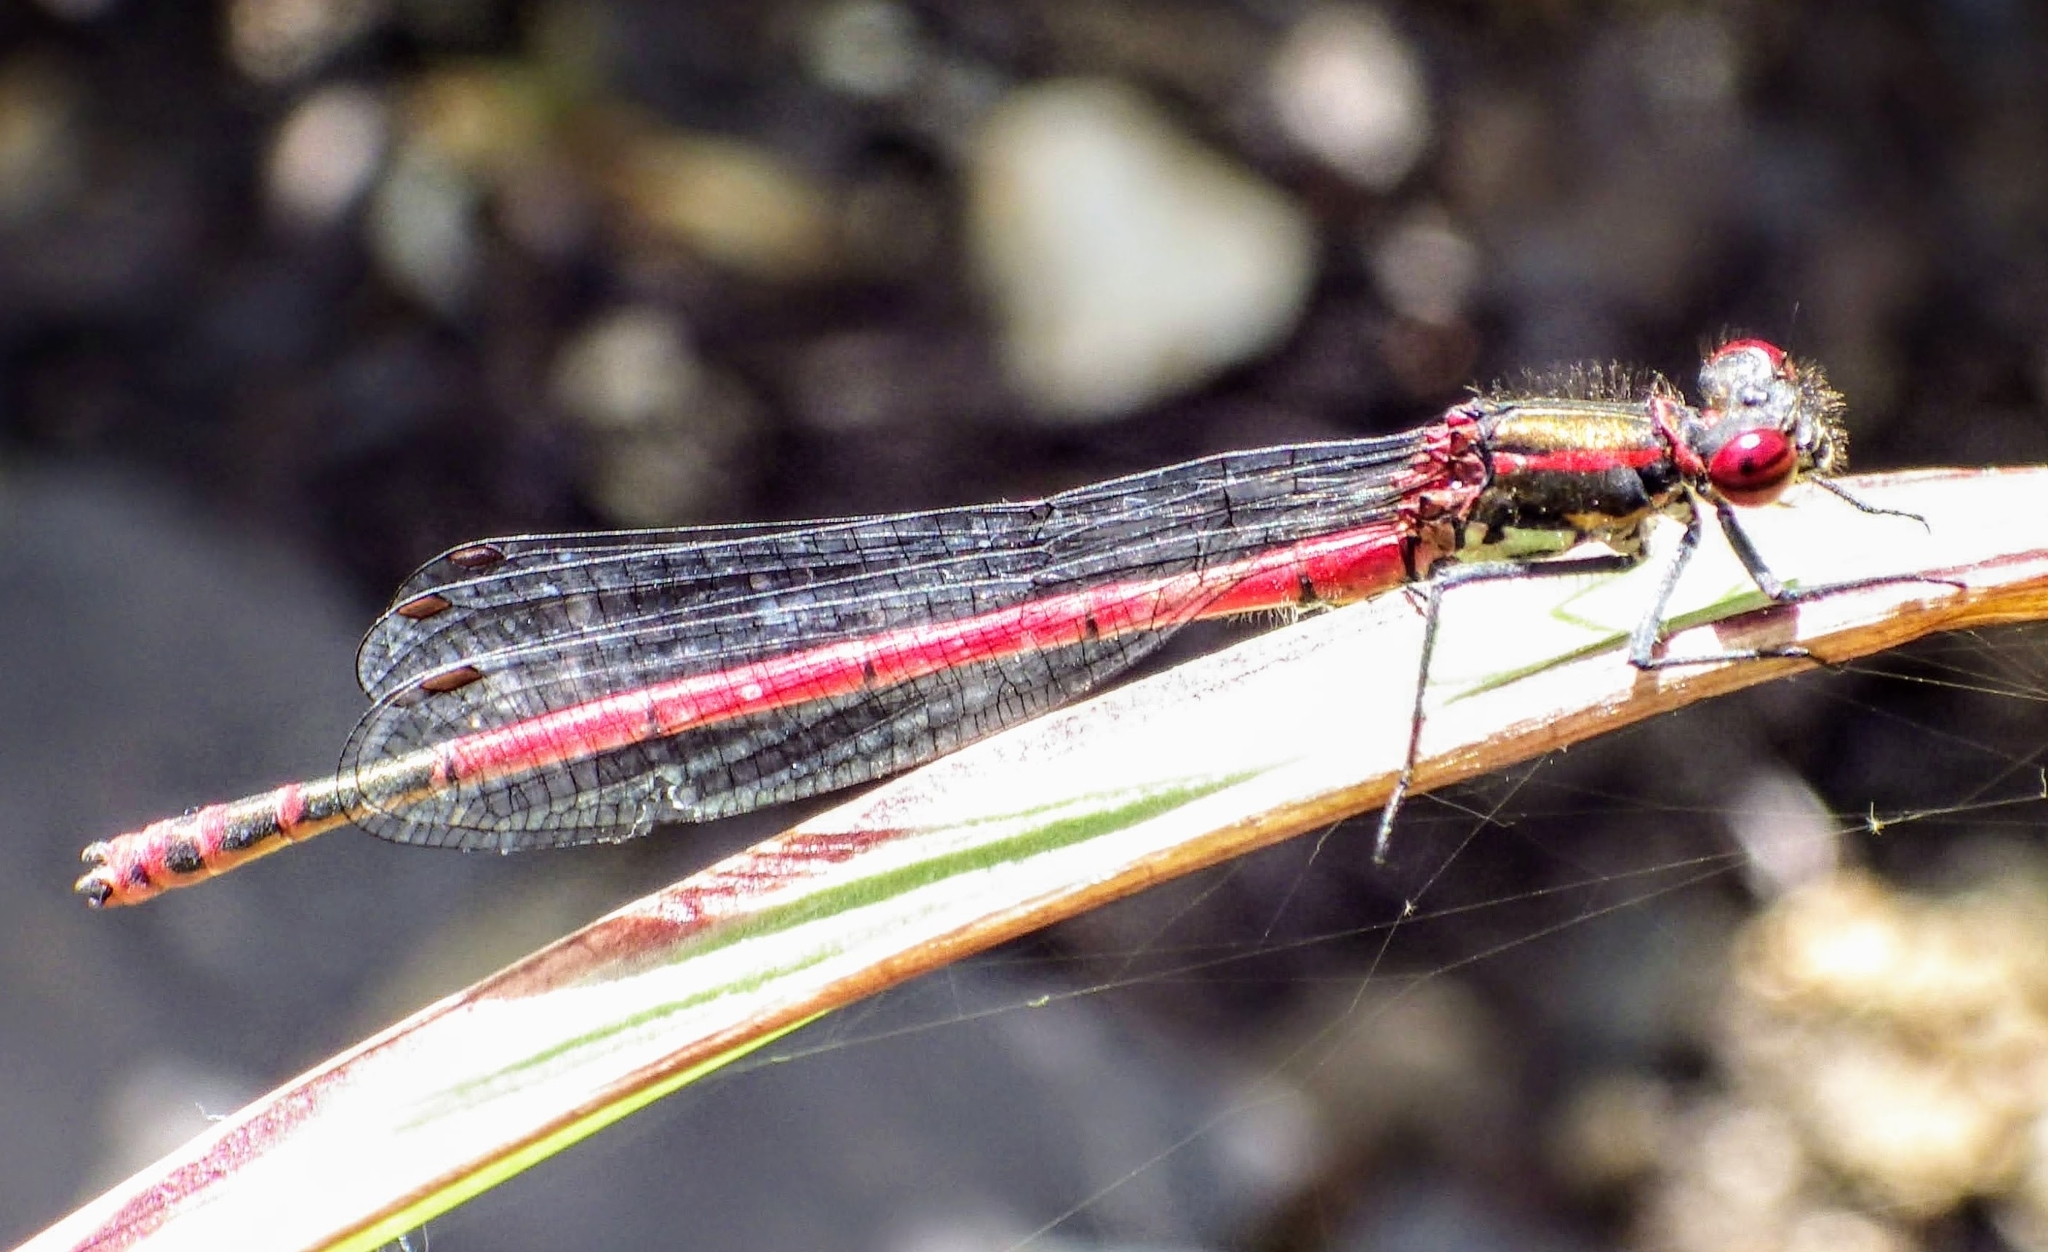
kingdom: Animalia
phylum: Arthropoda
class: Insecta
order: Odonata
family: Coenagrionidae
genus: Pyrrhosoma
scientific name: Pyrrhosoma nymphula
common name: Large red damsel
